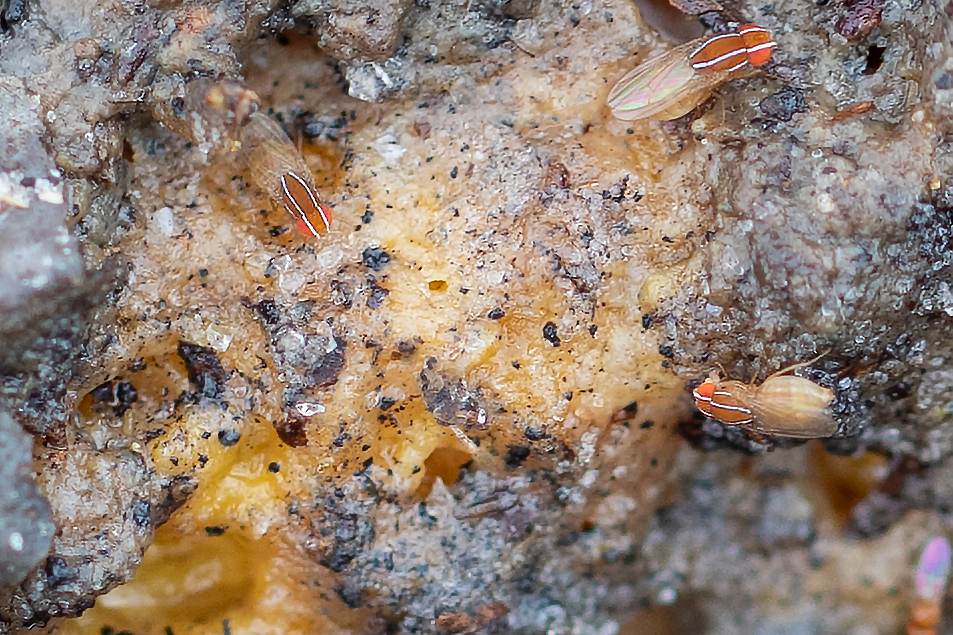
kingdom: Animalia
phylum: Arthropoda
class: Insecta
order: Diptera
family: Drosophilidae
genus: Zaprionus
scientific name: Zaprionus indianus
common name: African fig fly
